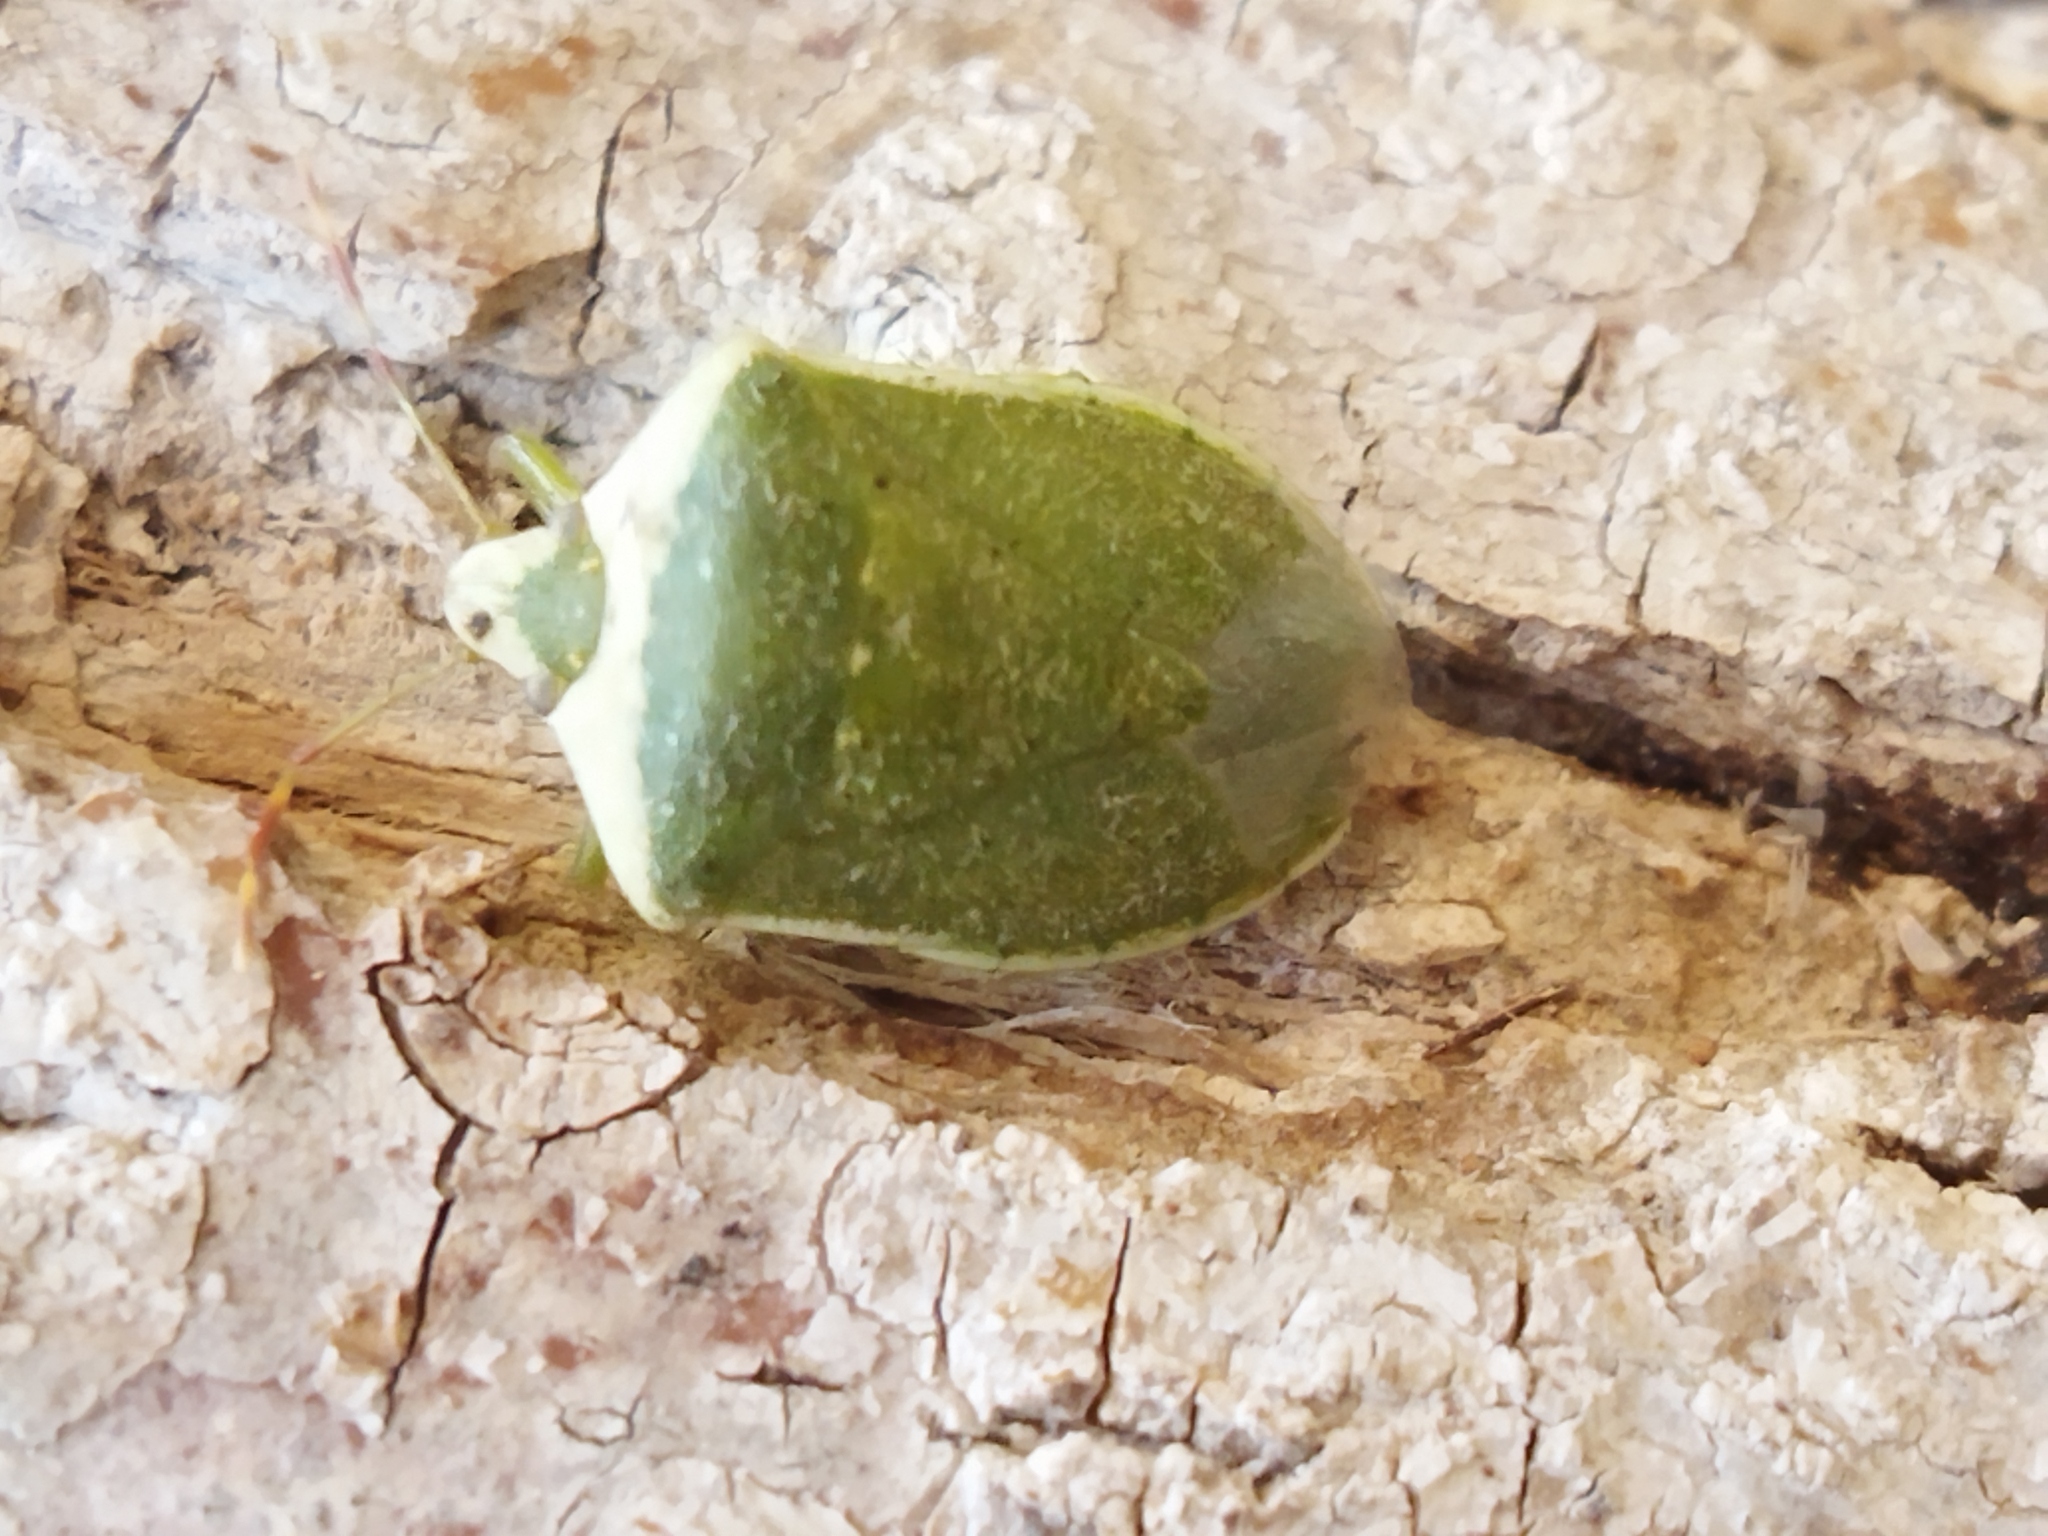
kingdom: Animalia
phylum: Arthropoda
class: Insecta
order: Hemiptera
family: Pentatomidae
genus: Nezara
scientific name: Nezara viridula
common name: Southern green stink bug
